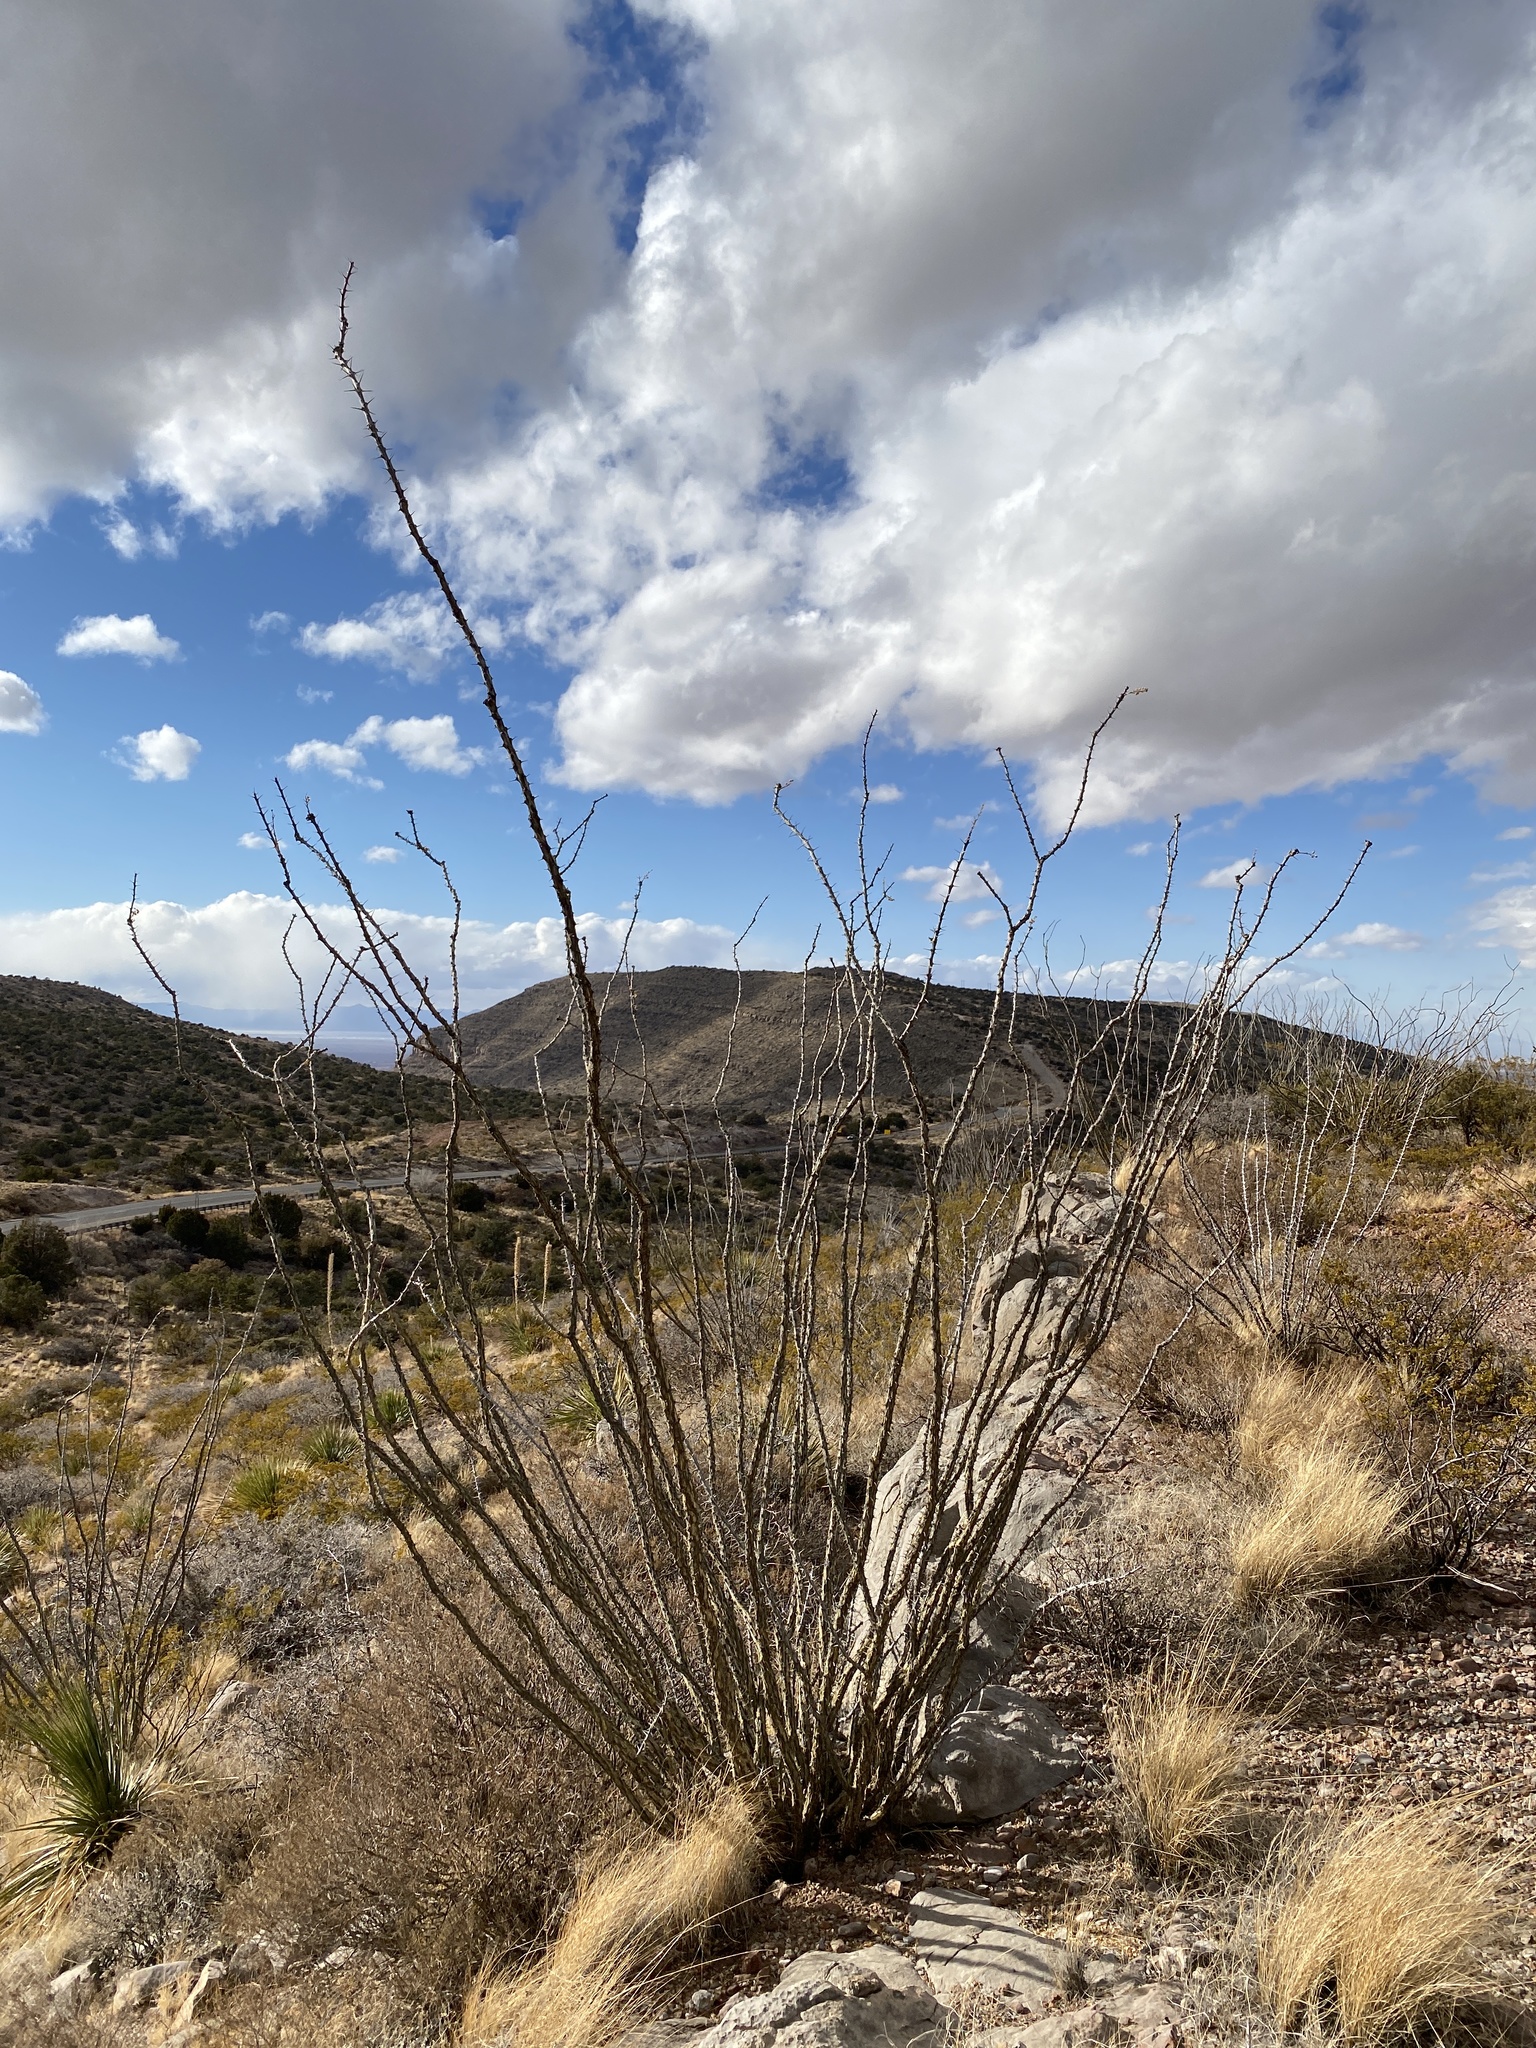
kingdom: Plantae
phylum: Tracheophyta
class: Magnoliopsida
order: Ericales
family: Fouquieriaceae
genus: Fouquieria
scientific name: Fouquieria splendens
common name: Vine-cactus
